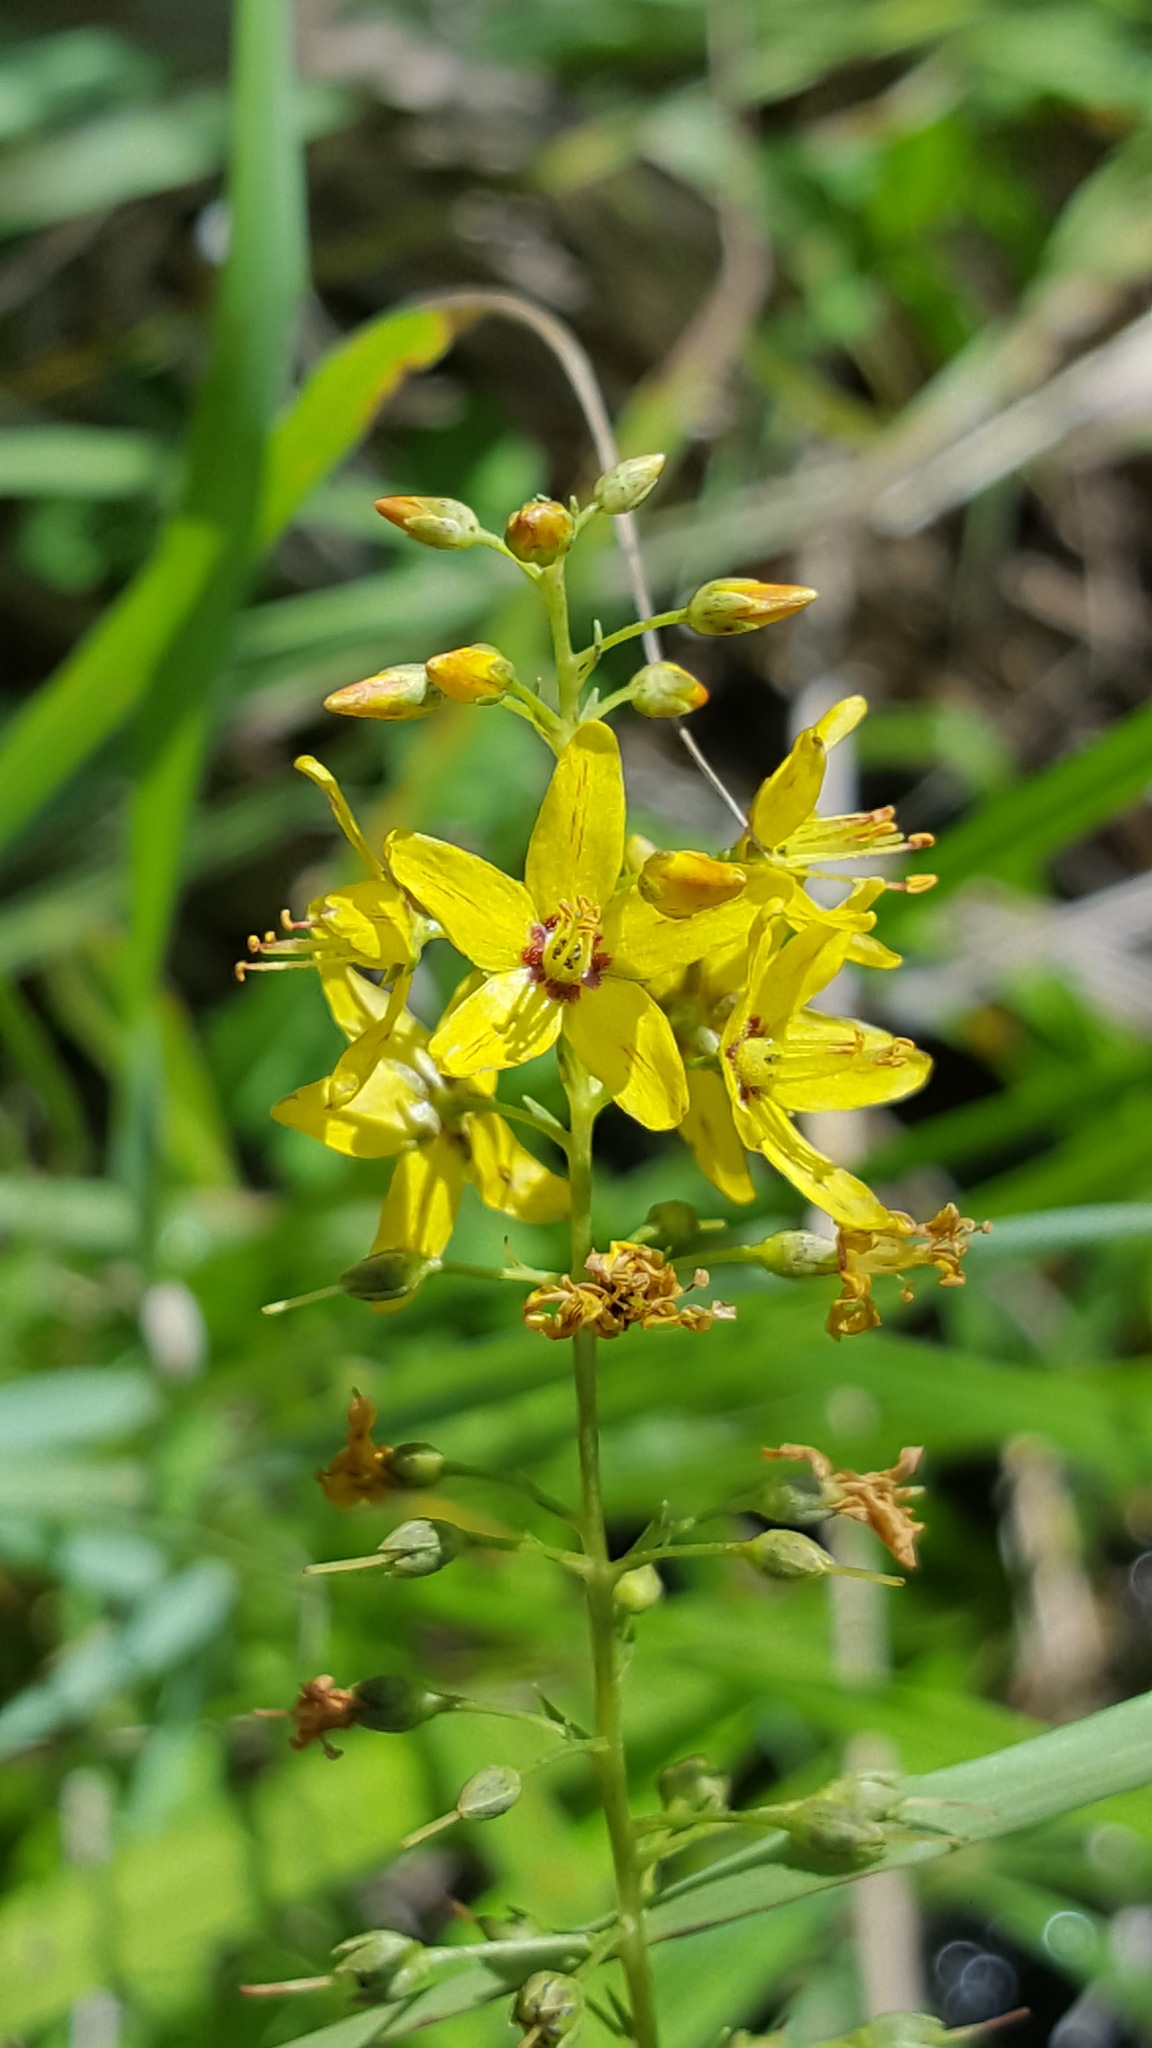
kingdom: Plantae
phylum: Tracheophyta
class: Magnoliopsida
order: Ericales
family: Primulaceae
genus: Lysimachia
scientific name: Lysimachia terrestris
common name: Lake loosestrife
